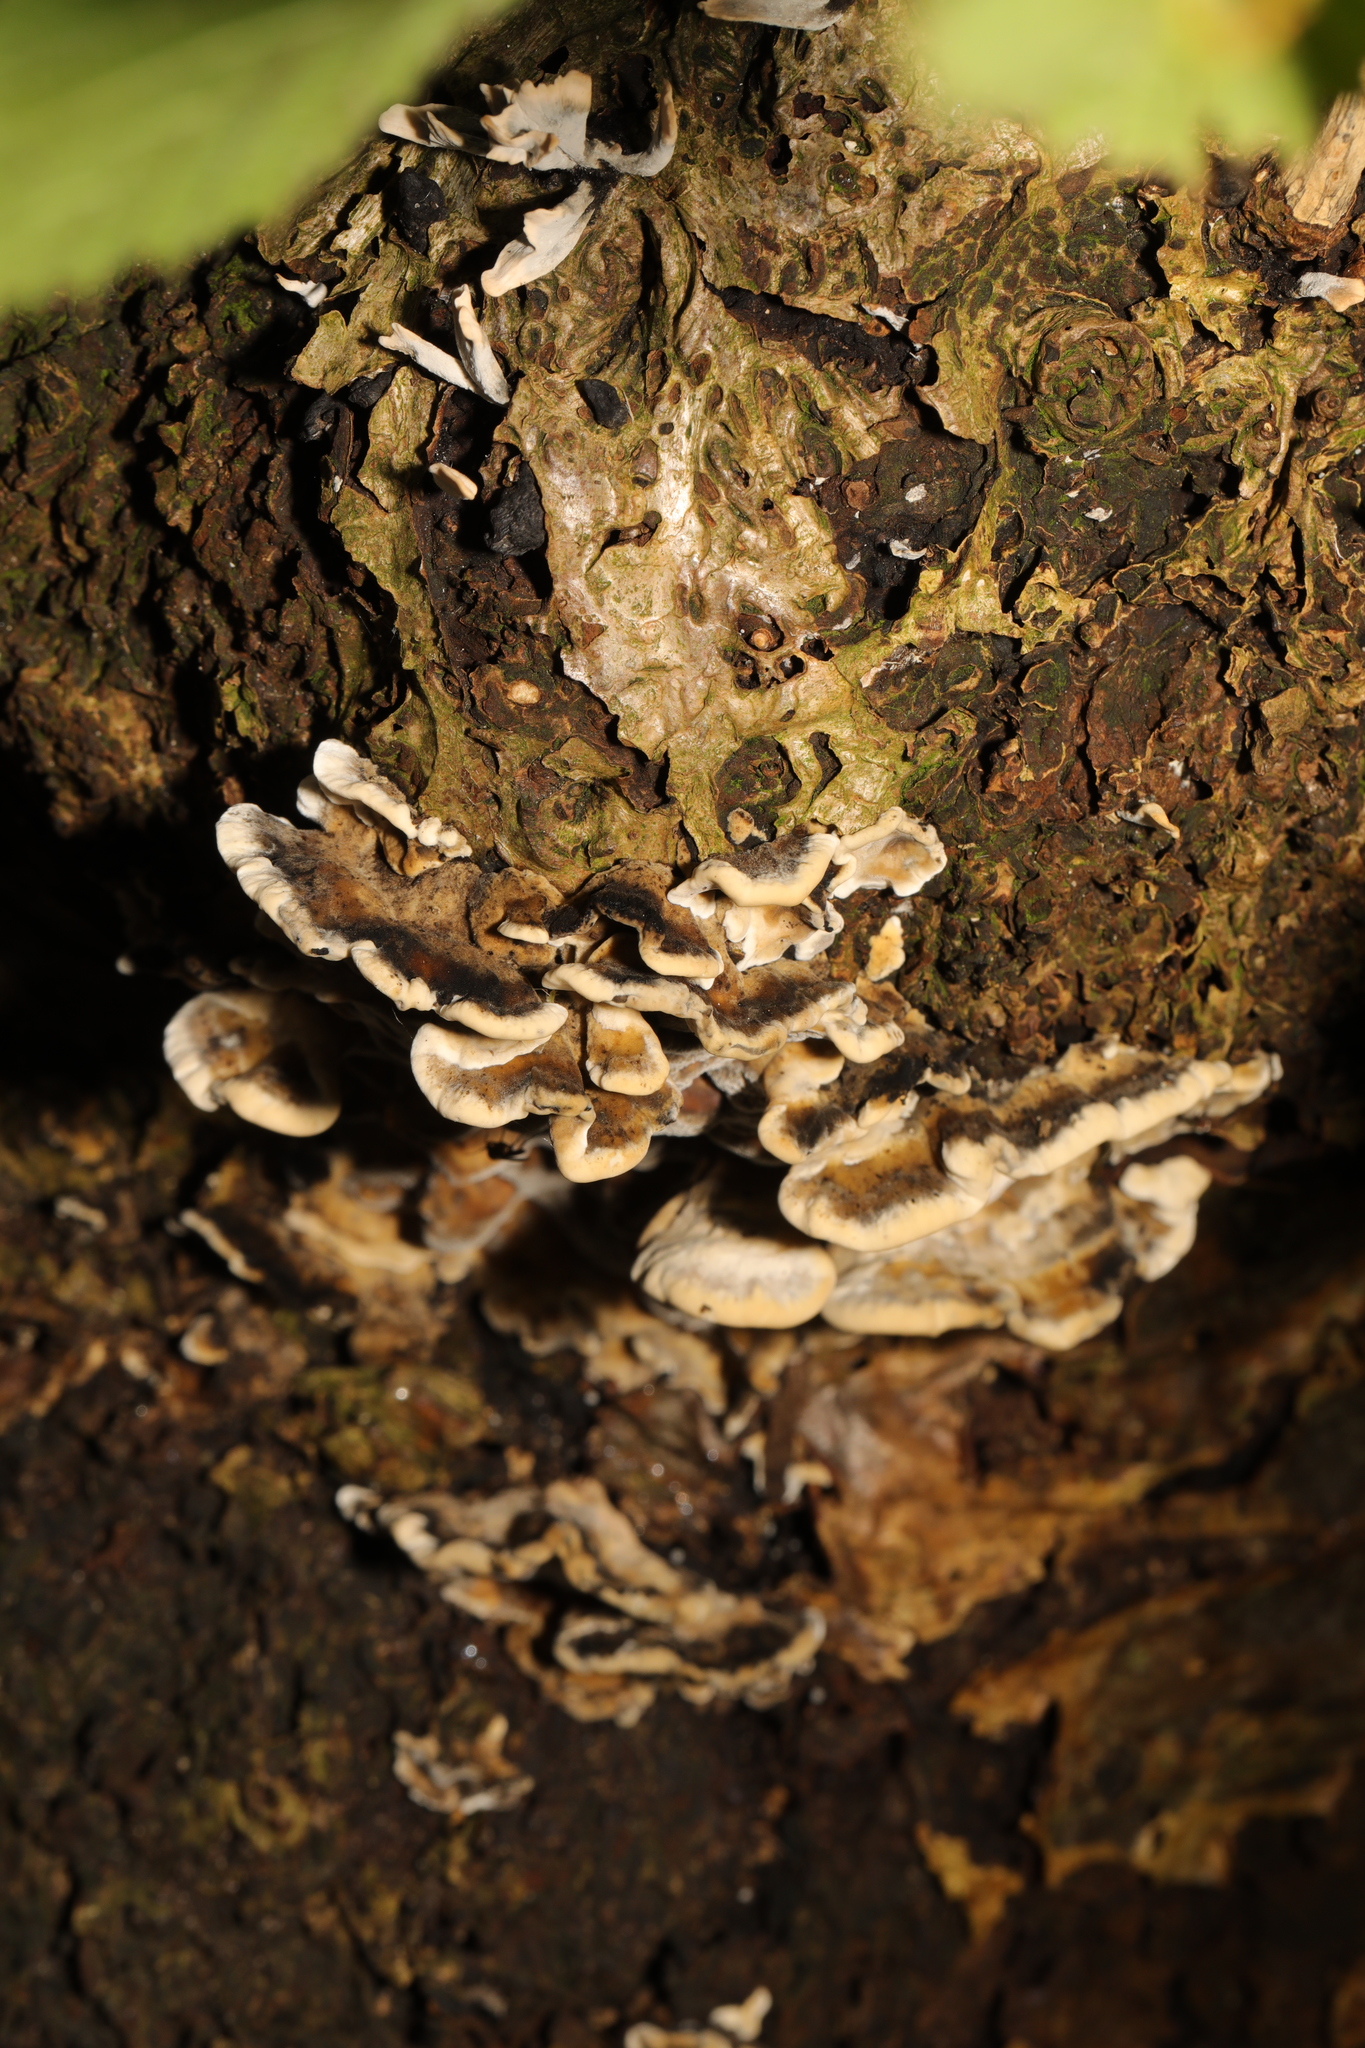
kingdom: Fungi
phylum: Basidiomycota
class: Agaricomycetes
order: Polyporales
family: Phanerochaetaceae
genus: Bjerkandera
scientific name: Bjerkandera adusta
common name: Smoky bracket
